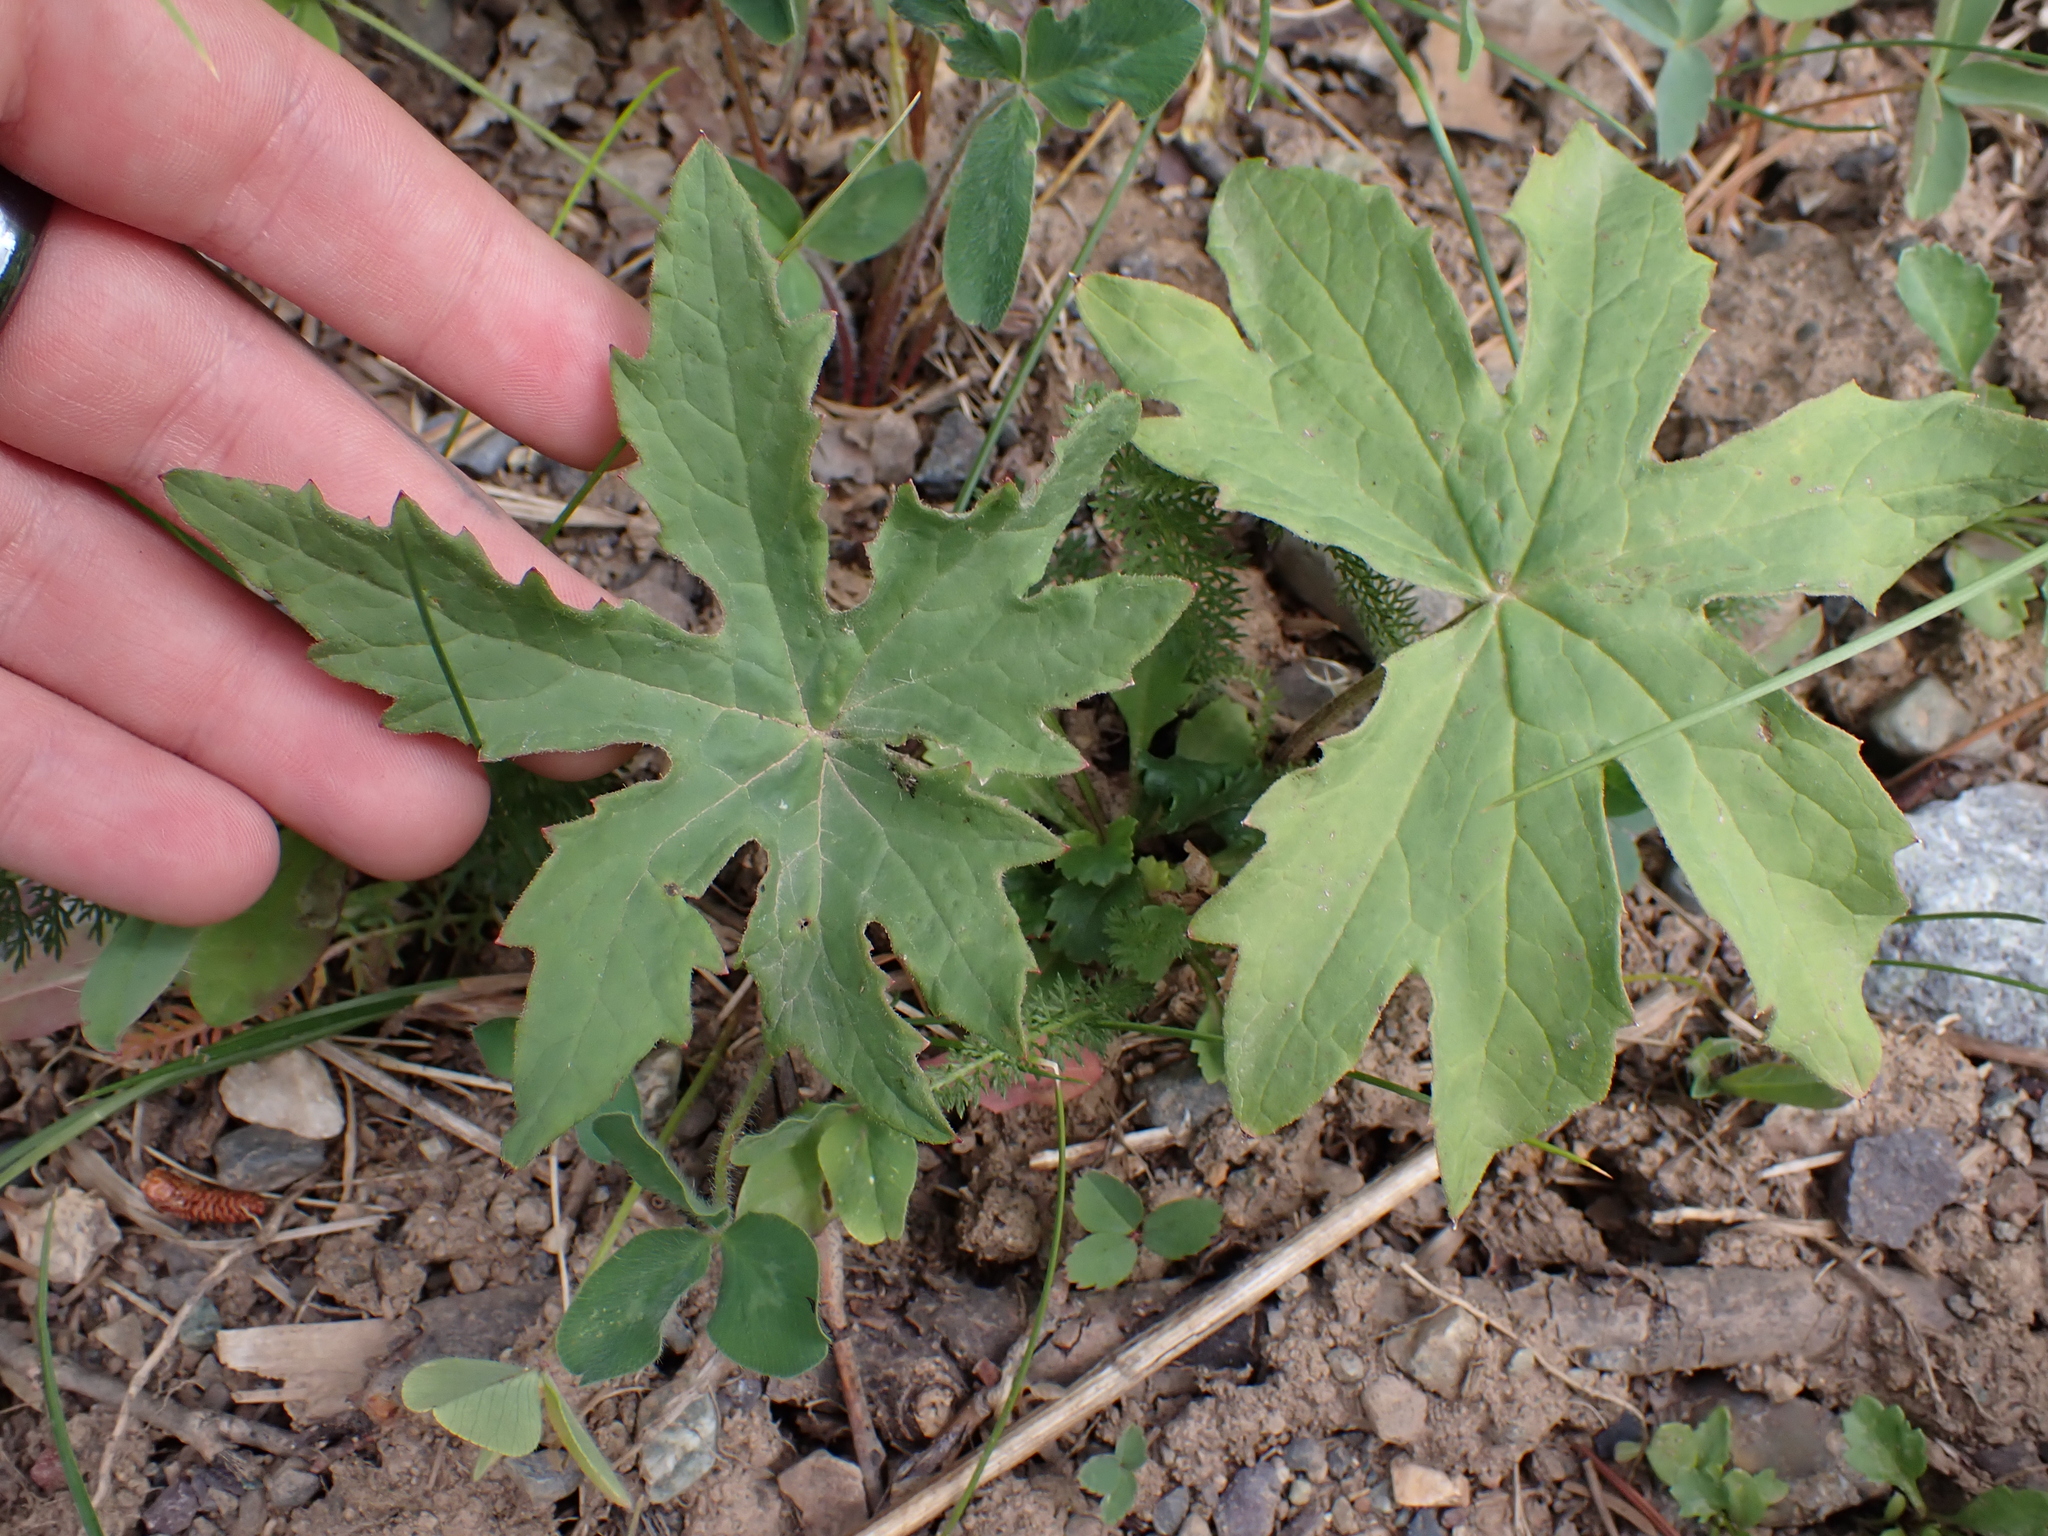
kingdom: Plantae
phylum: Tracheophyta
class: Magnoliopsida
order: Asterales
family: Asteraceae
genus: Petasites
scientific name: Petasites frigidus
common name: Arctic butterbur
